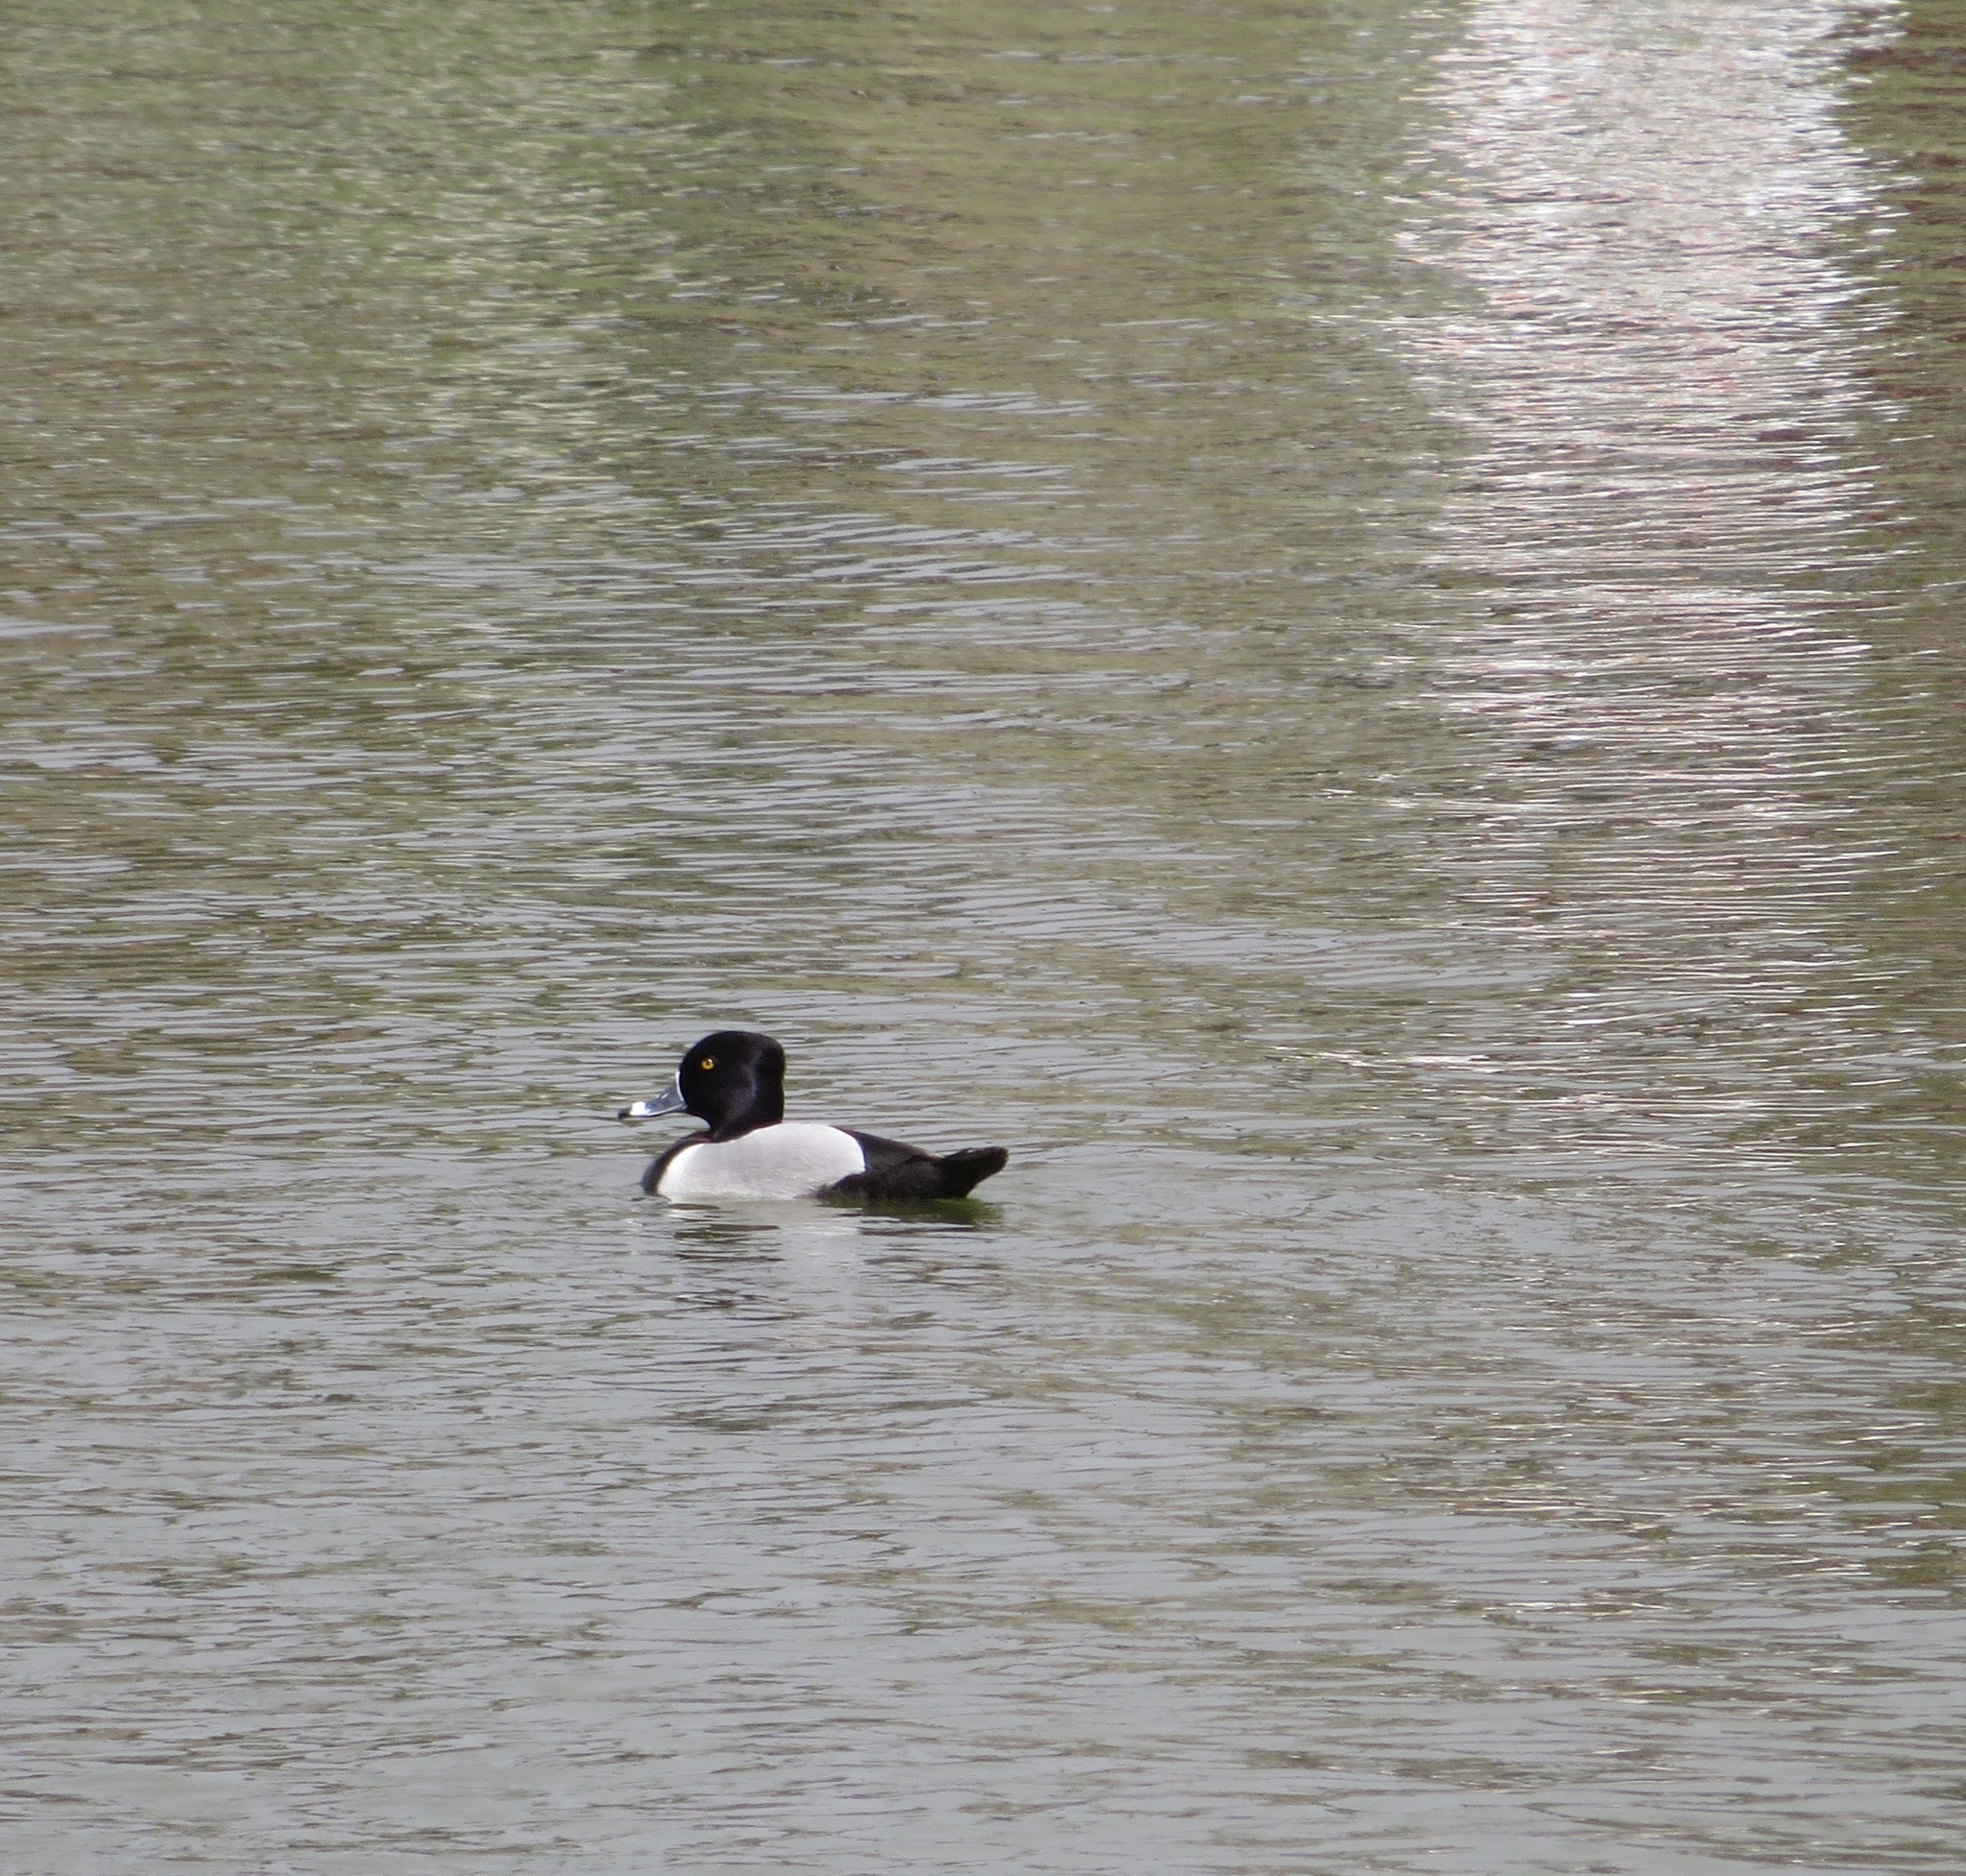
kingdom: Animalia
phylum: Chordata
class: Aves
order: Anseriformes
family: Anatidae
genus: Aythya
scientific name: Aythya collaris
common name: Ring-necked duck
